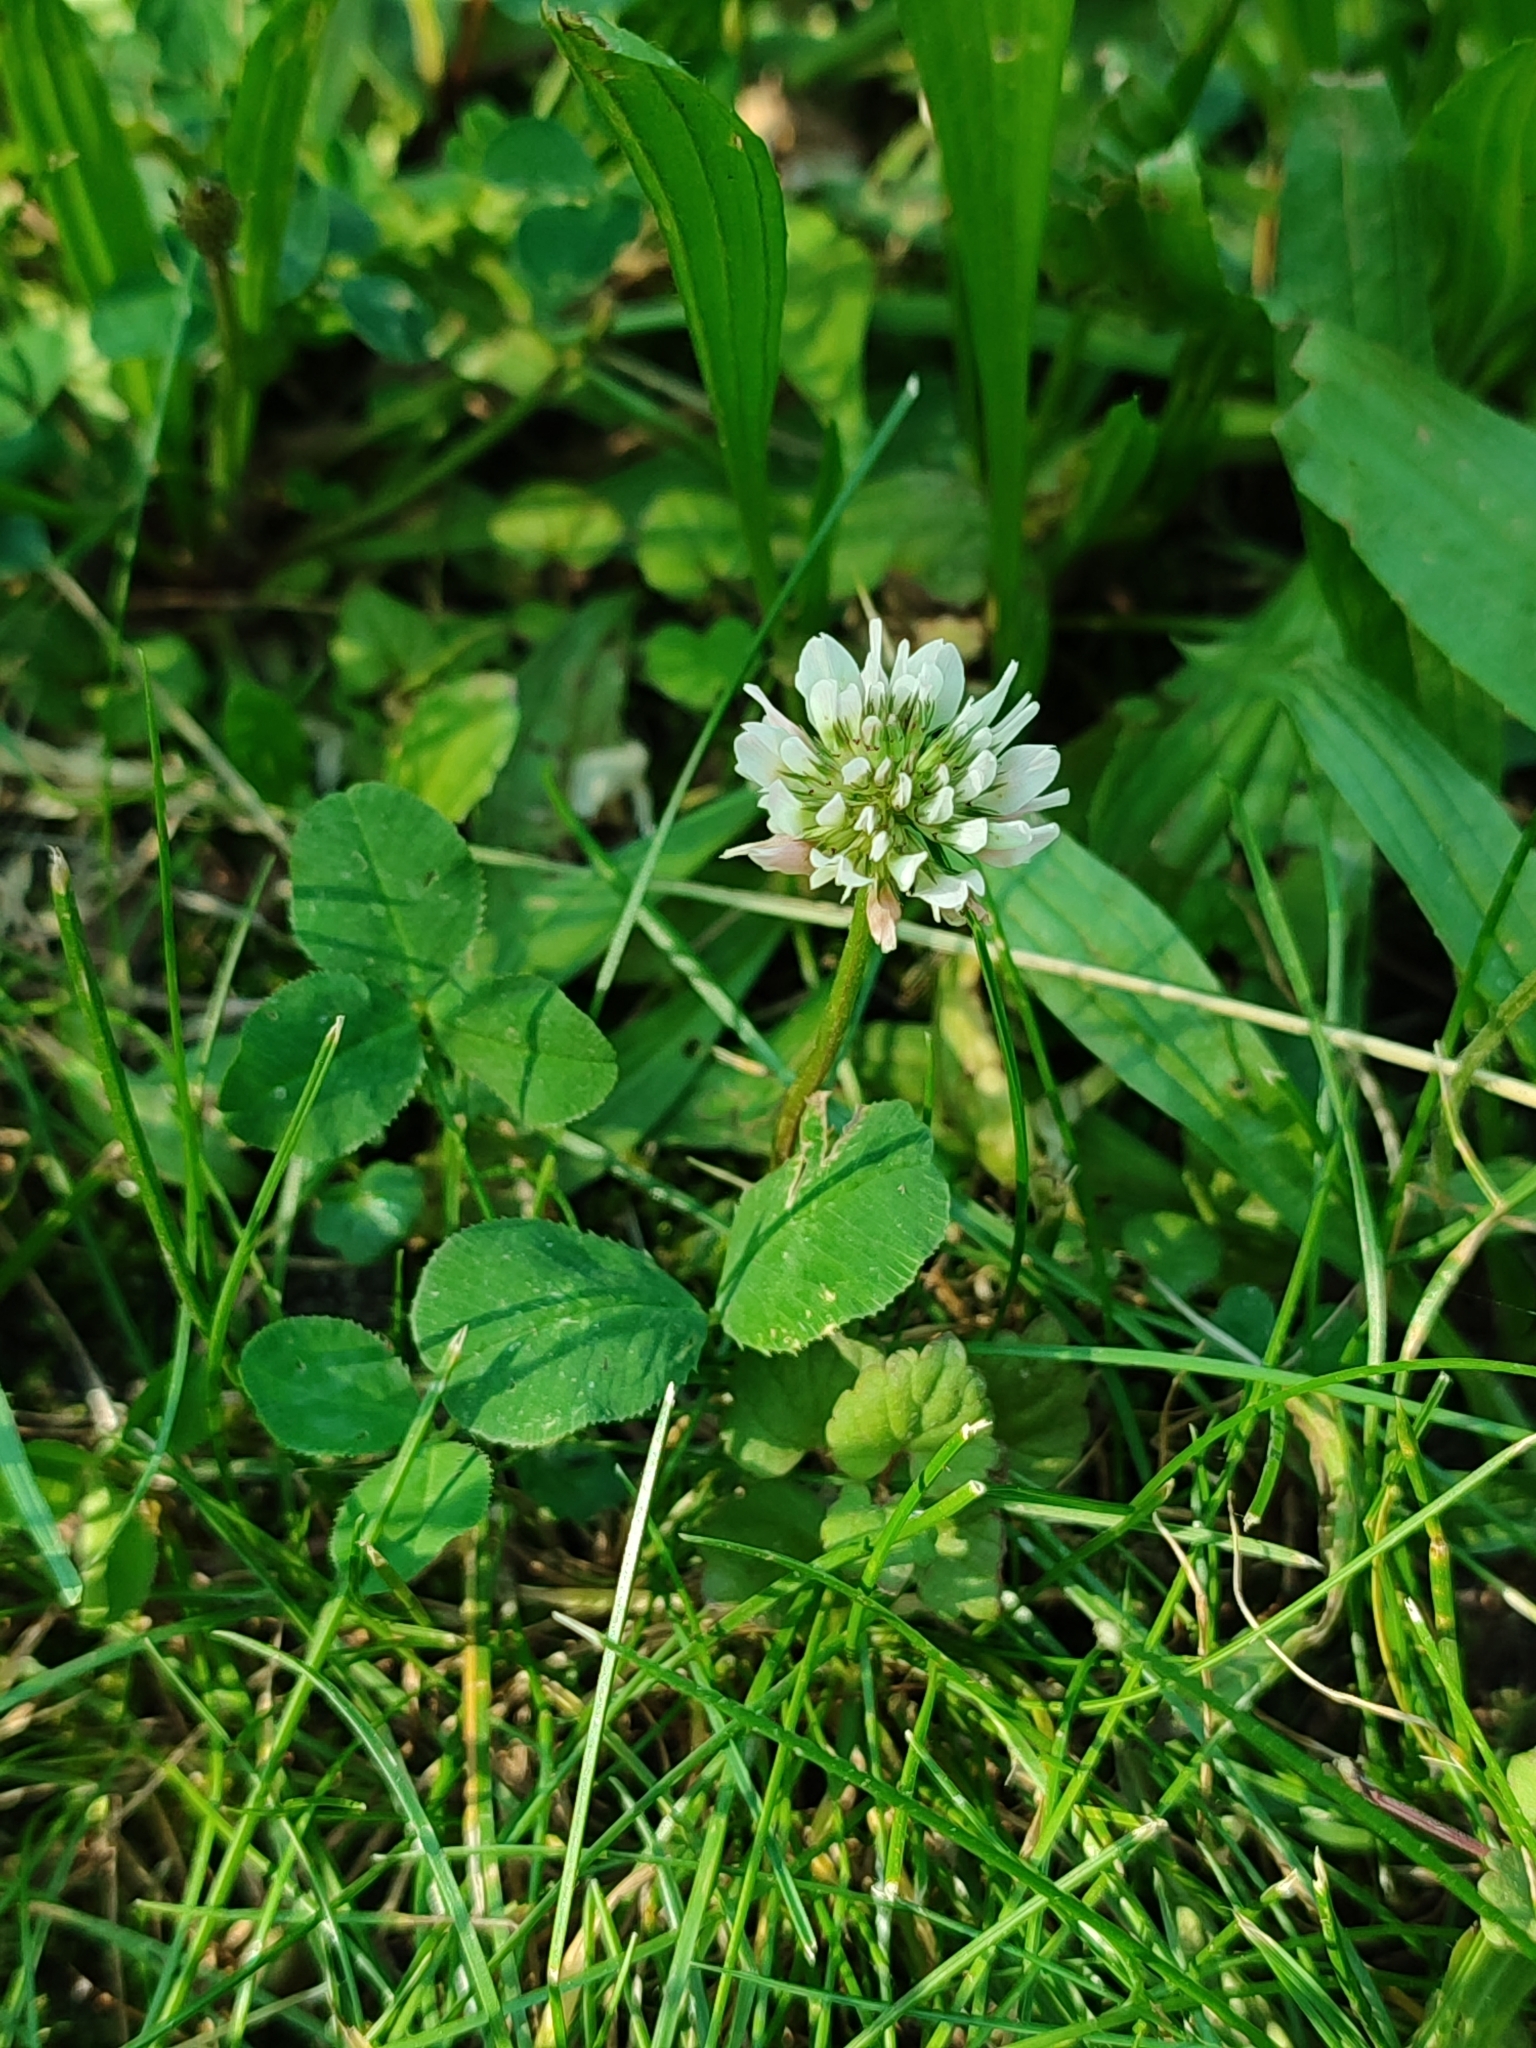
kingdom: Plantae
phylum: Tracheophyta
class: Magnoliopsida
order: Fabales
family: Fabaceae
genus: Trifolium
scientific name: Trifolium repens
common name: White clover
